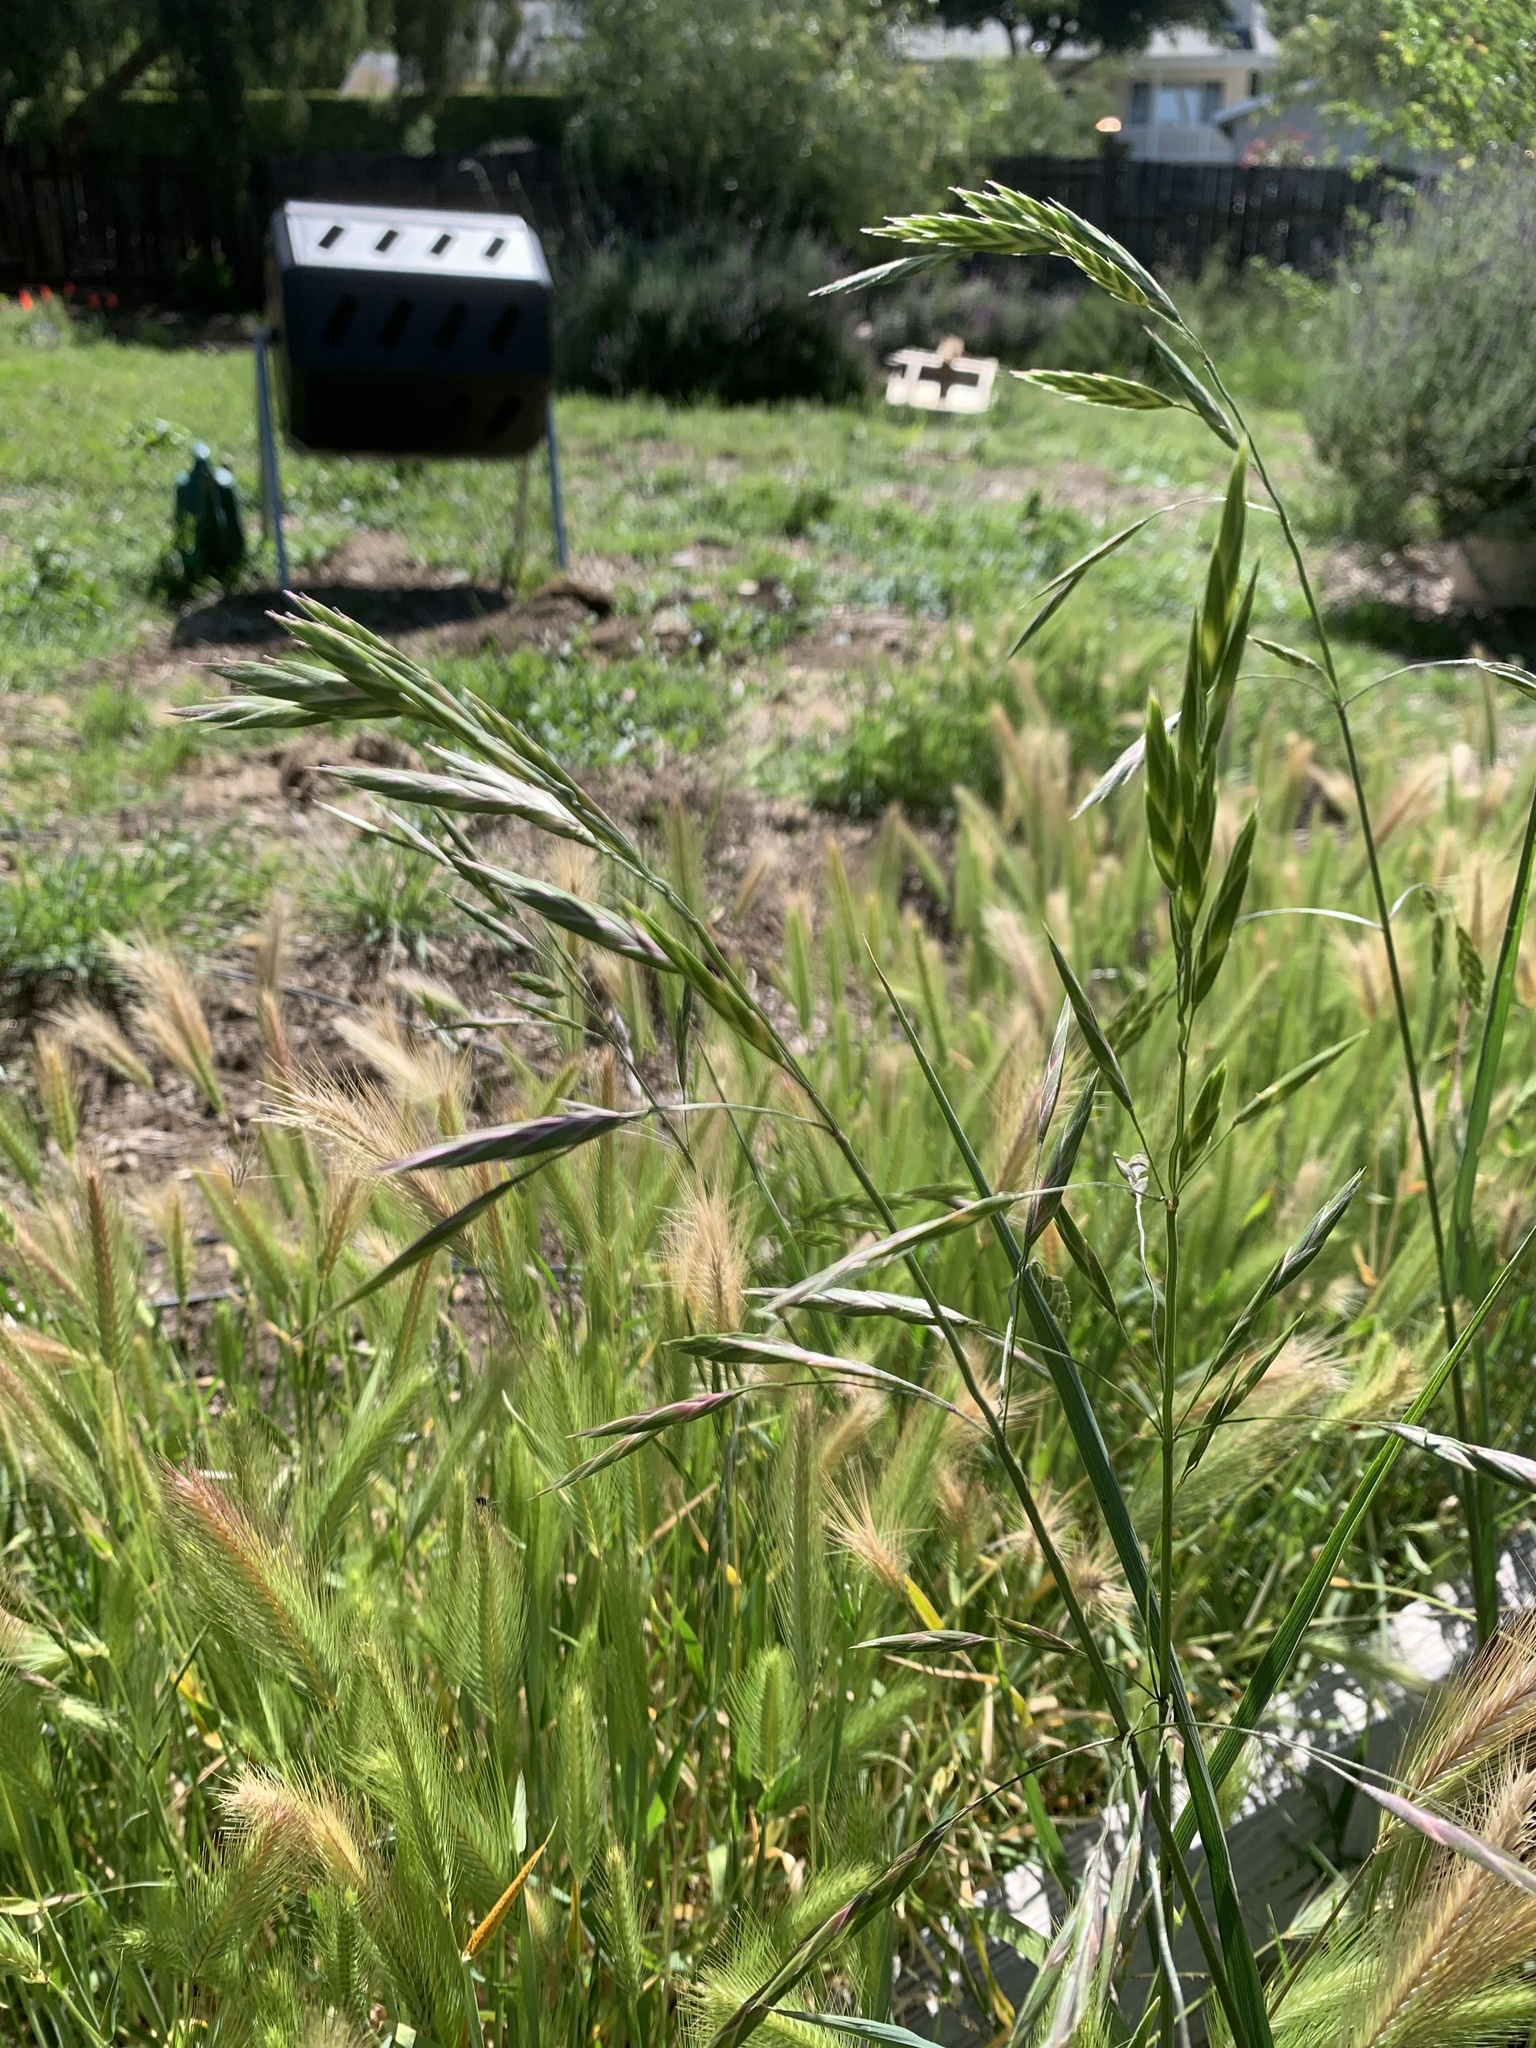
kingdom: Plantae
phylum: Tracheophyta
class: Liliopsida
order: Poales
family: Poaceae
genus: Bromus
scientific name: Bromus catharticus
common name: Rescuegrass
